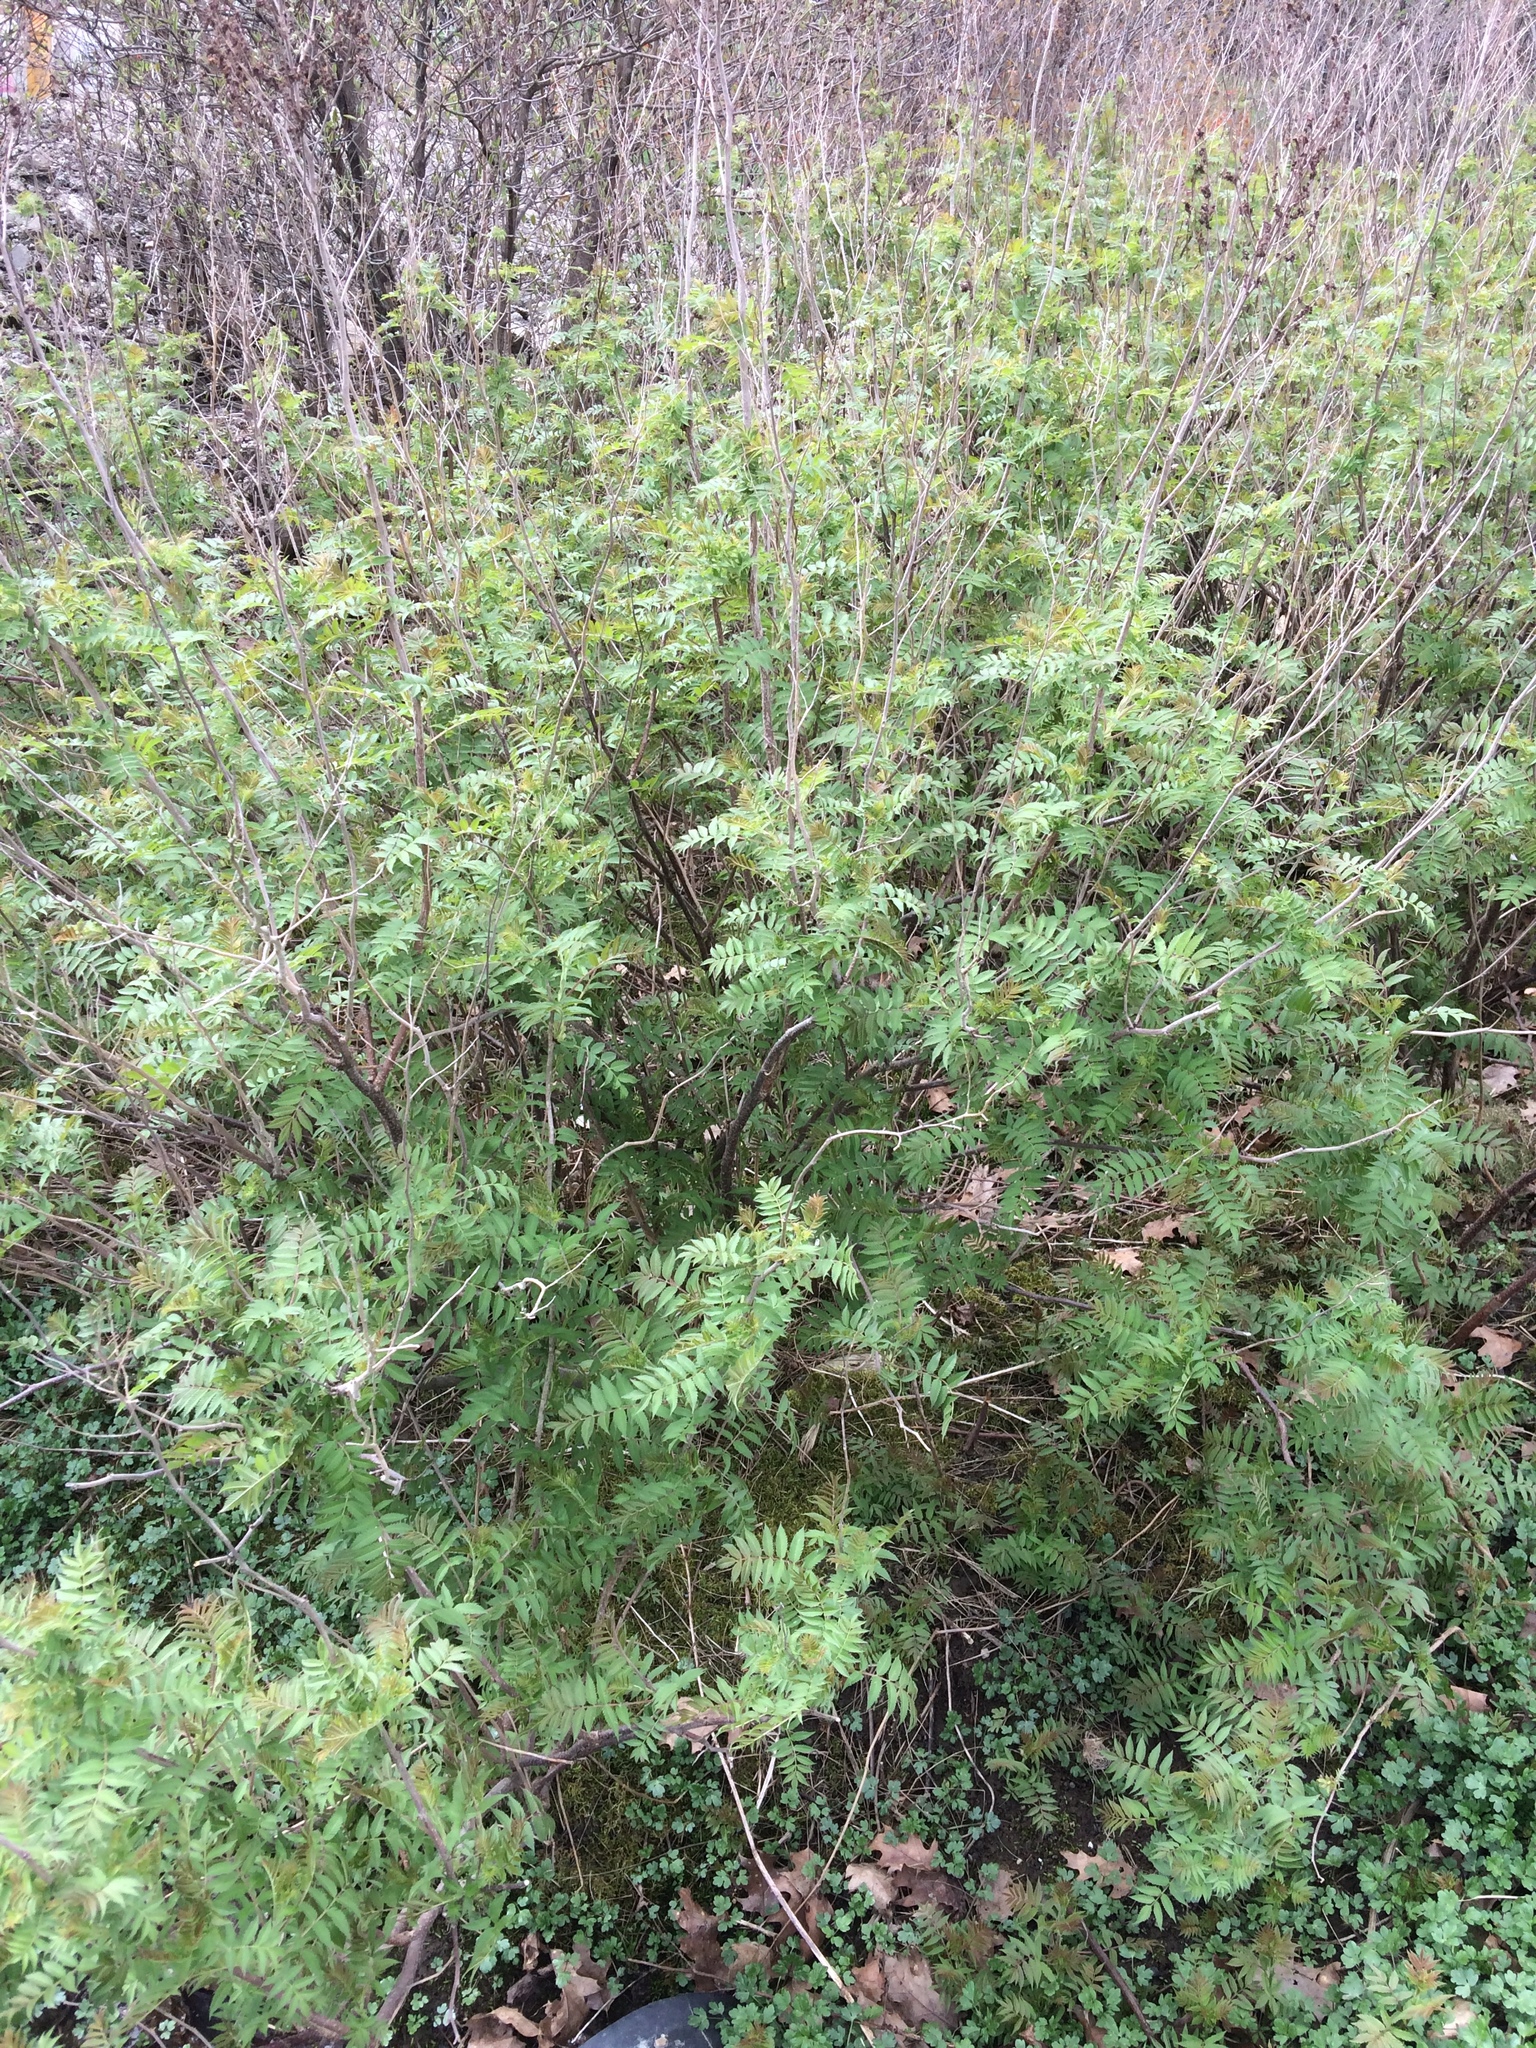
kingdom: Plantae
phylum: Tracheophyta
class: Magnoliopsida
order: Rosales
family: Rosaceae
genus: Sorbaria
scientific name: Sorbaria sorbifolia
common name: False spiraea
